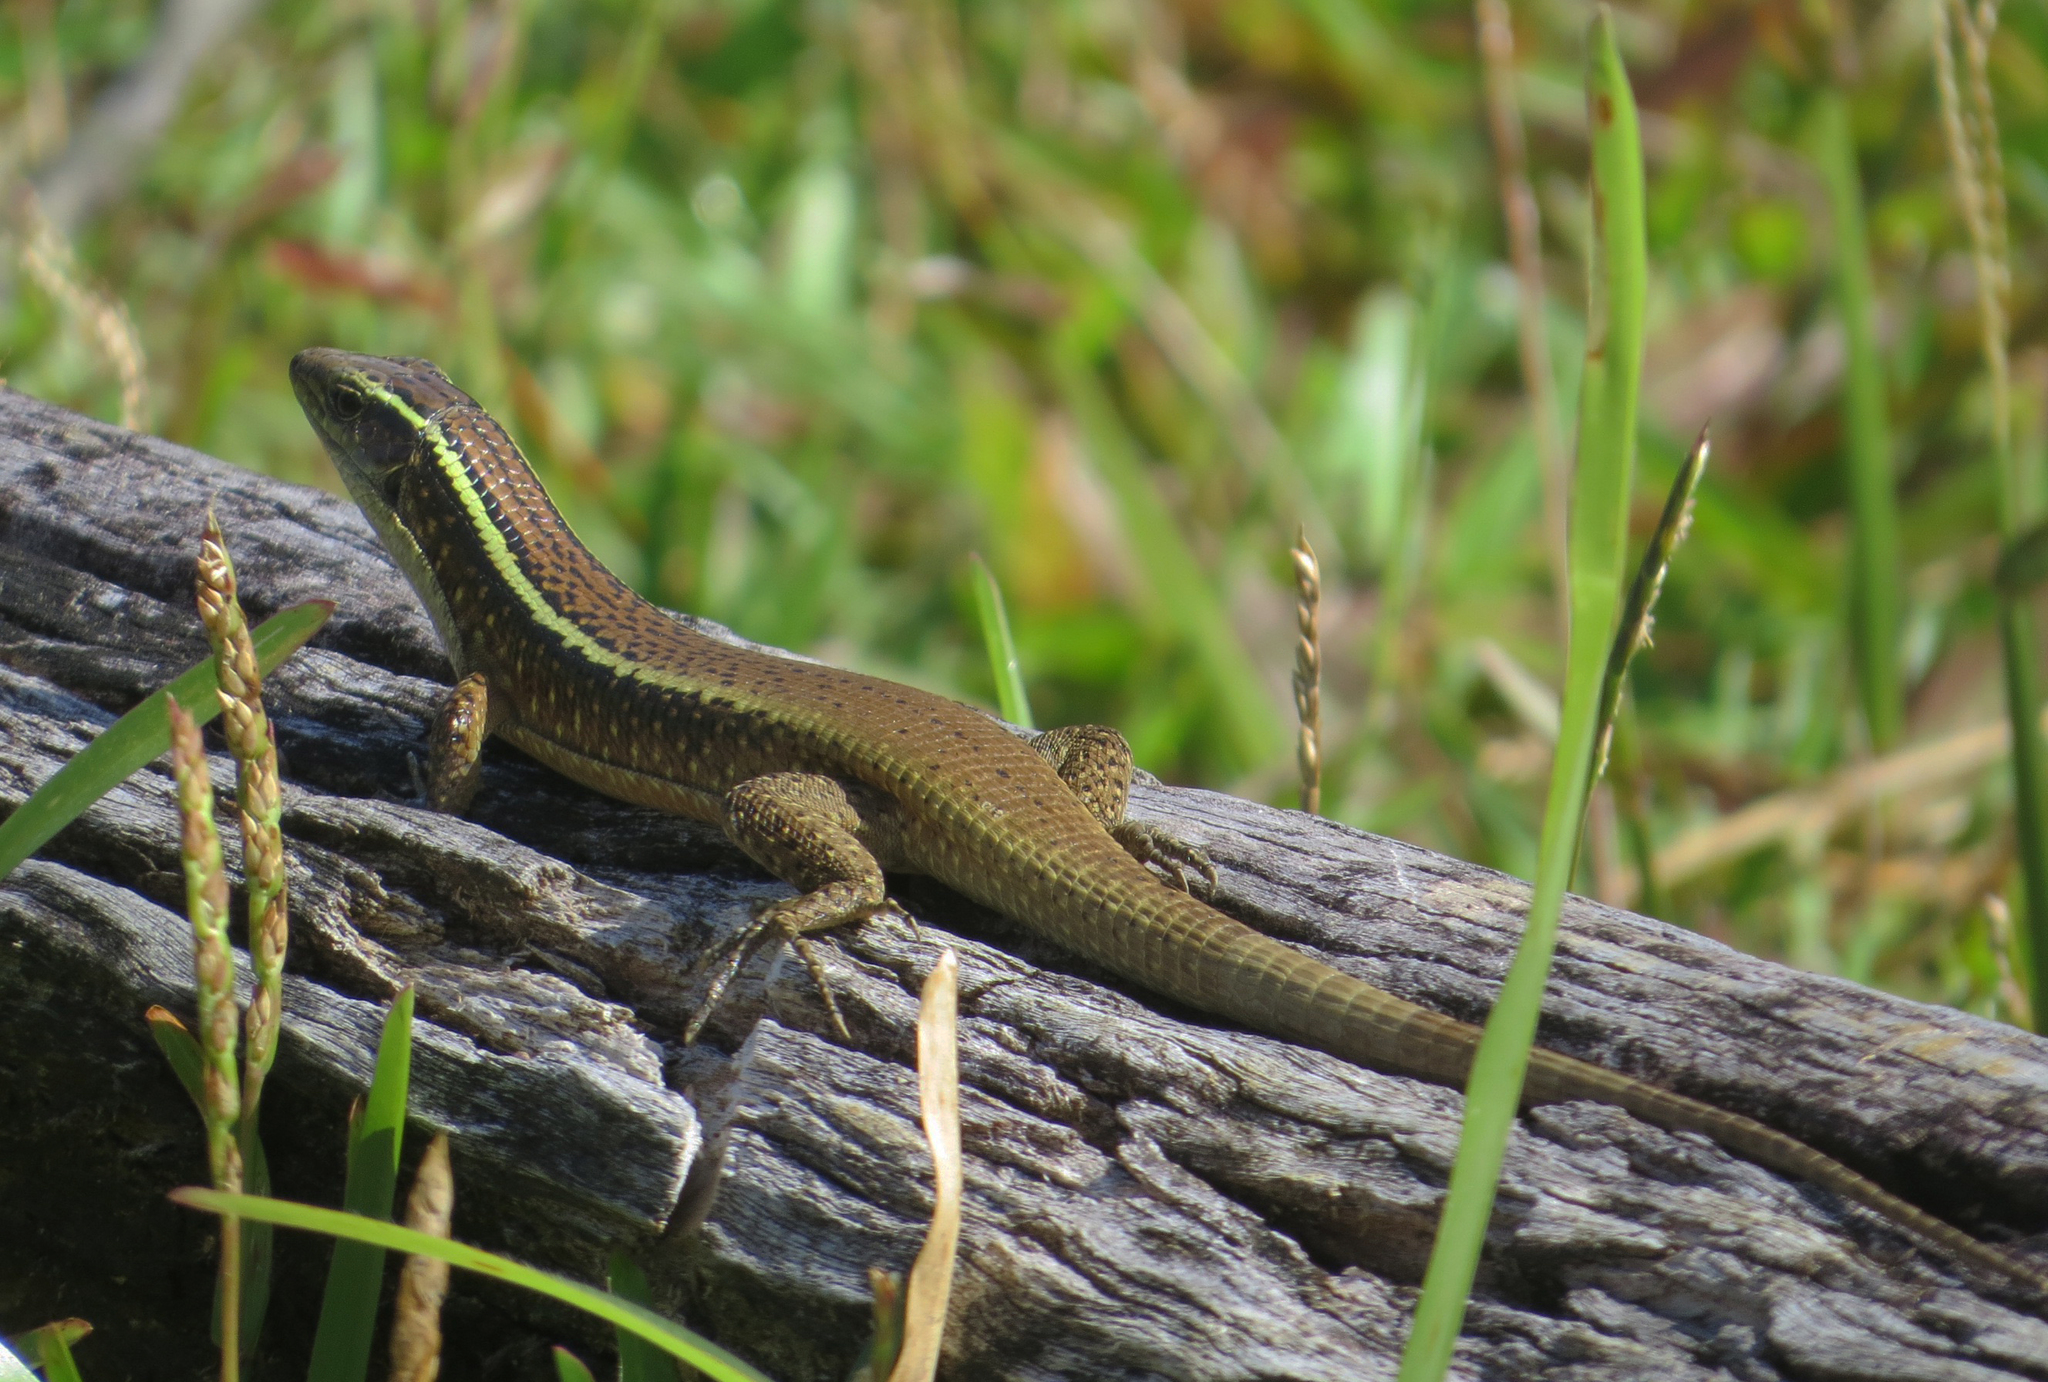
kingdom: Animalia
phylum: Chordata
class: Squamata
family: Gerrhosauridae
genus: Zonosaurus
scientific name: Zonosaurus madagascariensis
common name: Madagascar girdled lizard
